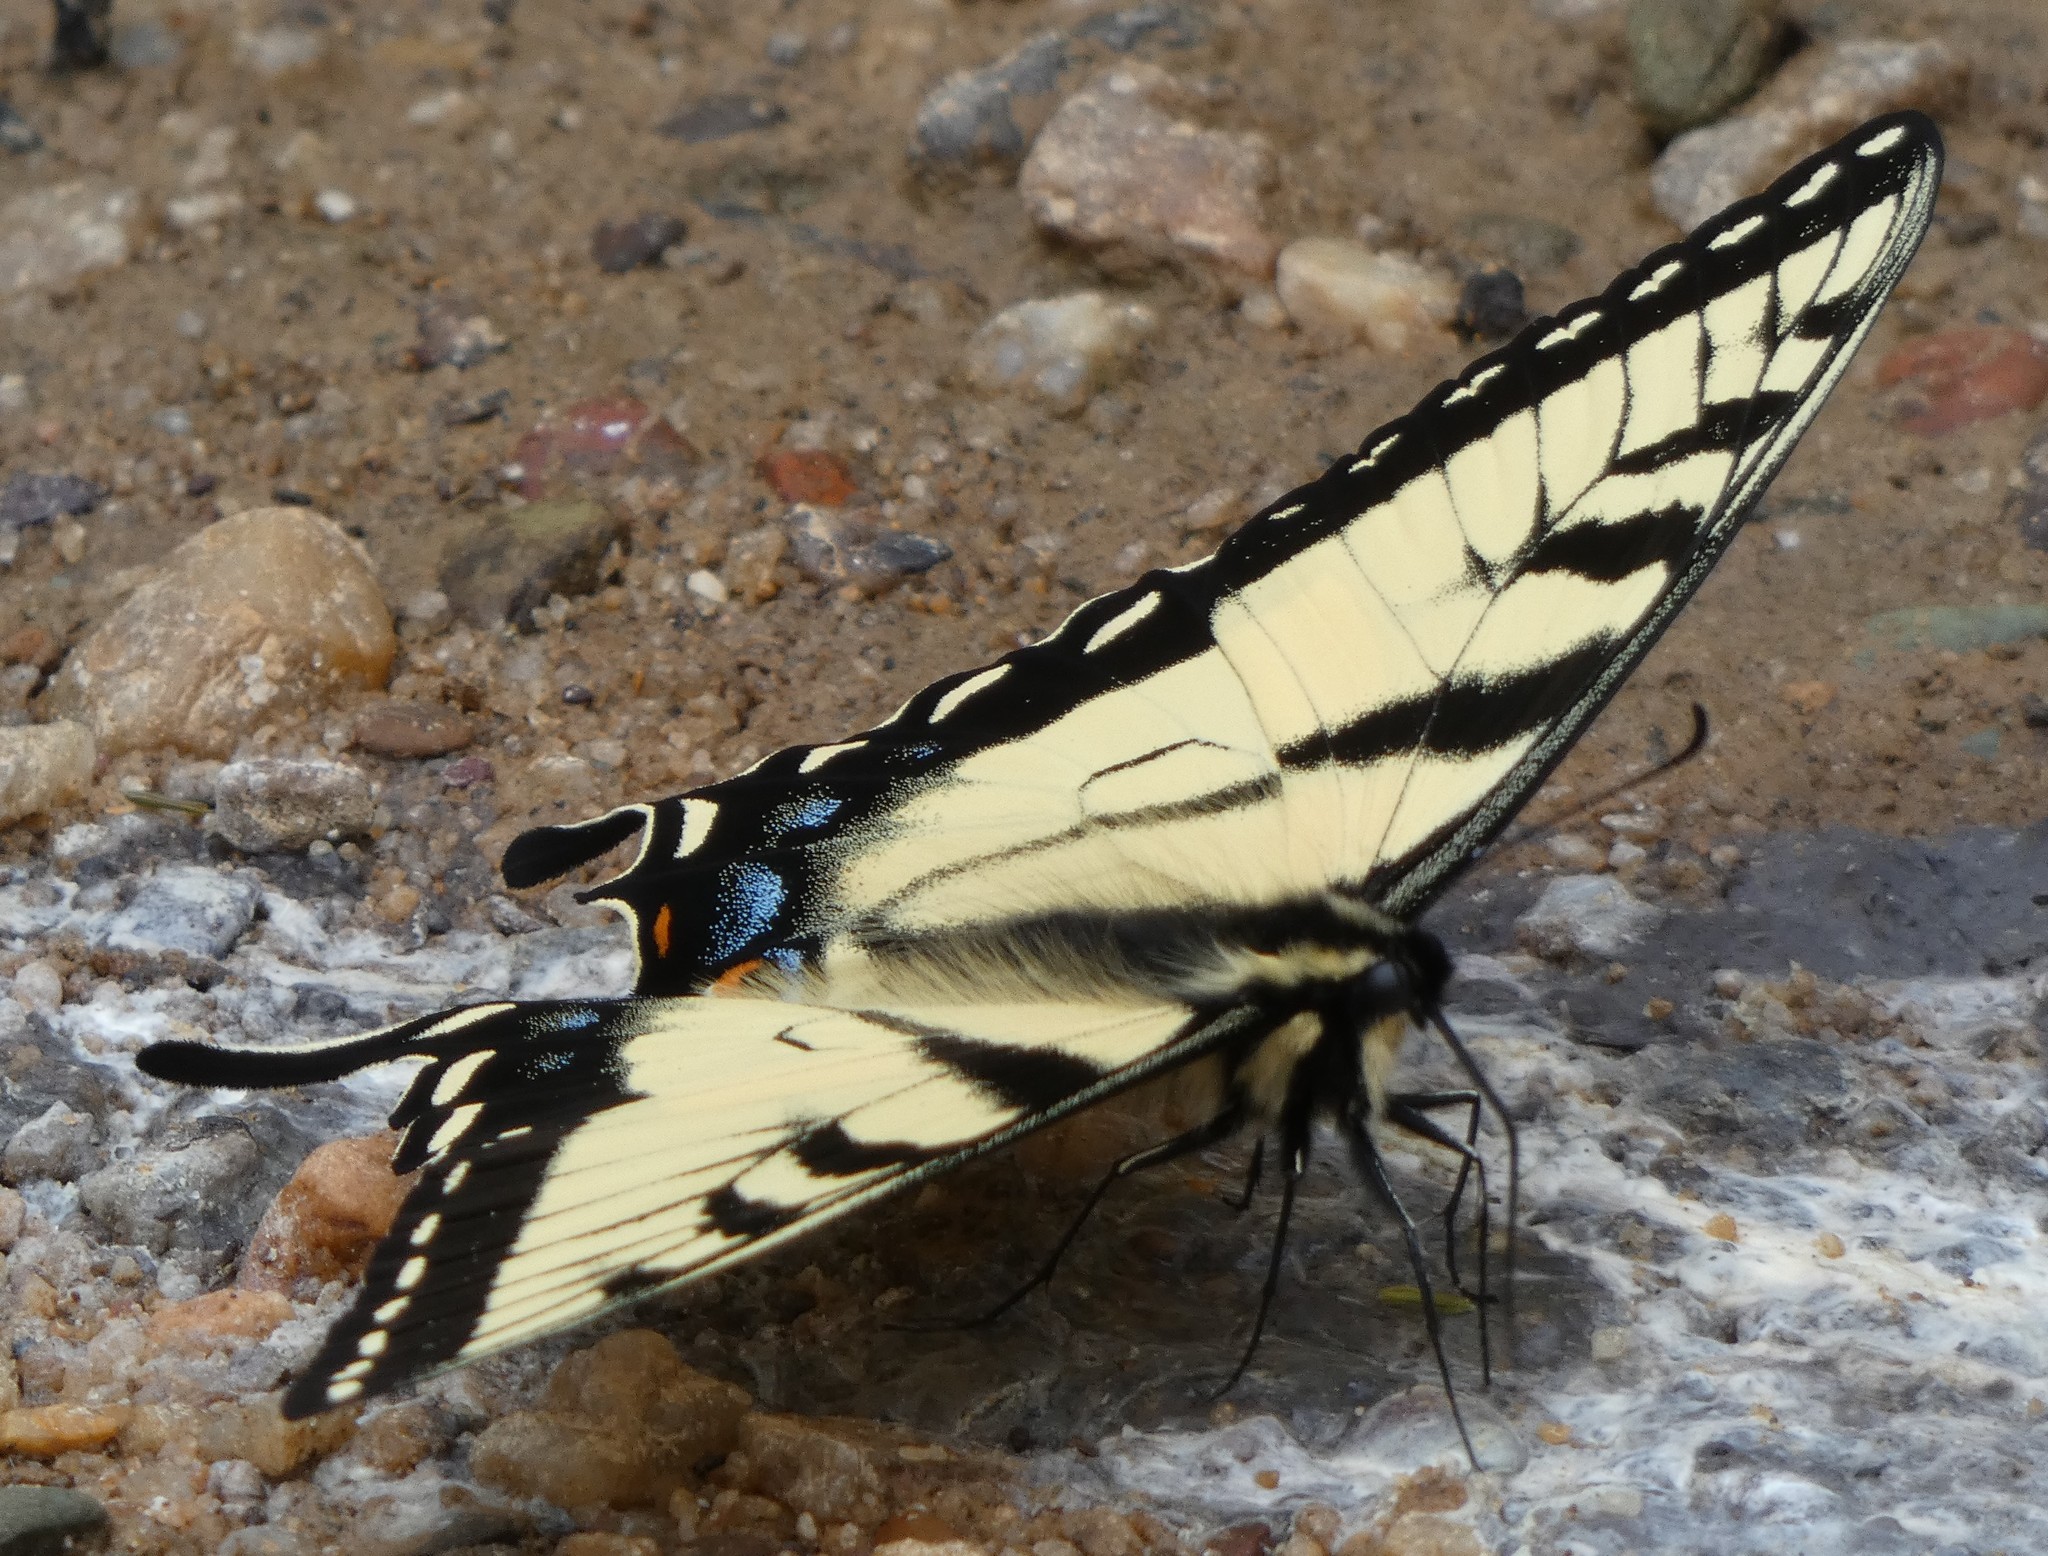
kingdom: Animalia
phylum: Arthropoda
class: Insecta
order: Lepidoptera
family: Papilionidae
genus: Papilio
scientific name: Papilio glaucus
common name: Tiger swallowtail
